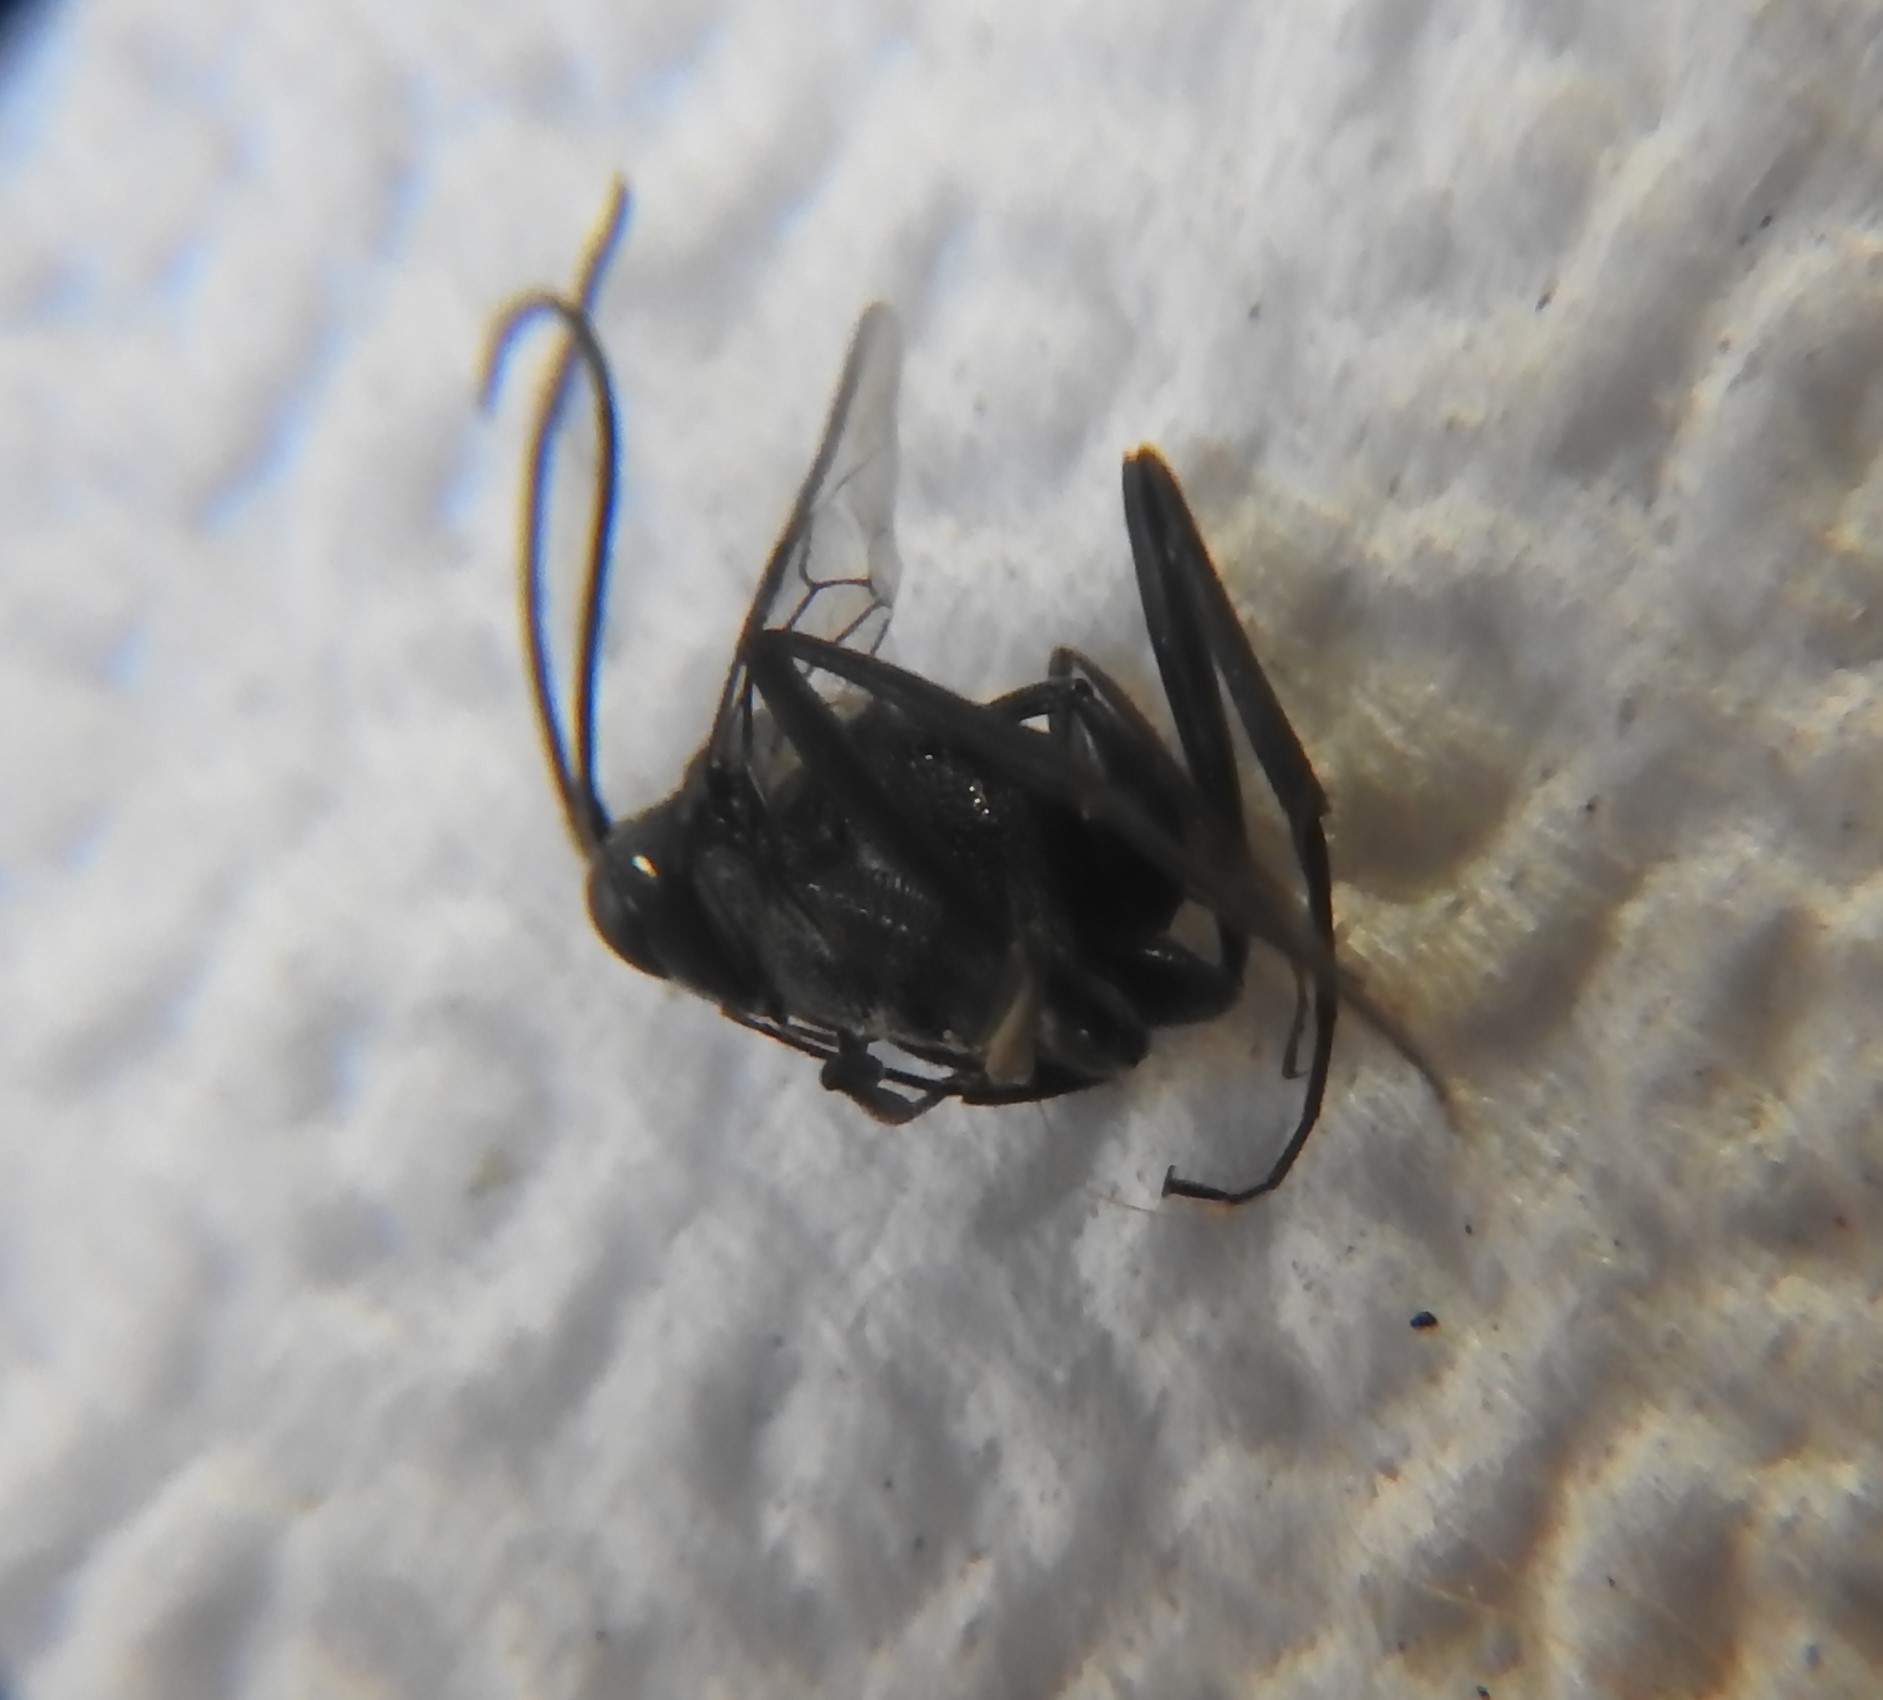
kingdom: Animalia
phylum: Arthropoda
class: Insecta
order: Hymenoptera
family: Evaniidae
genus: Evania
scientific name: Evania appendigaster
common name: Ensign wasp
